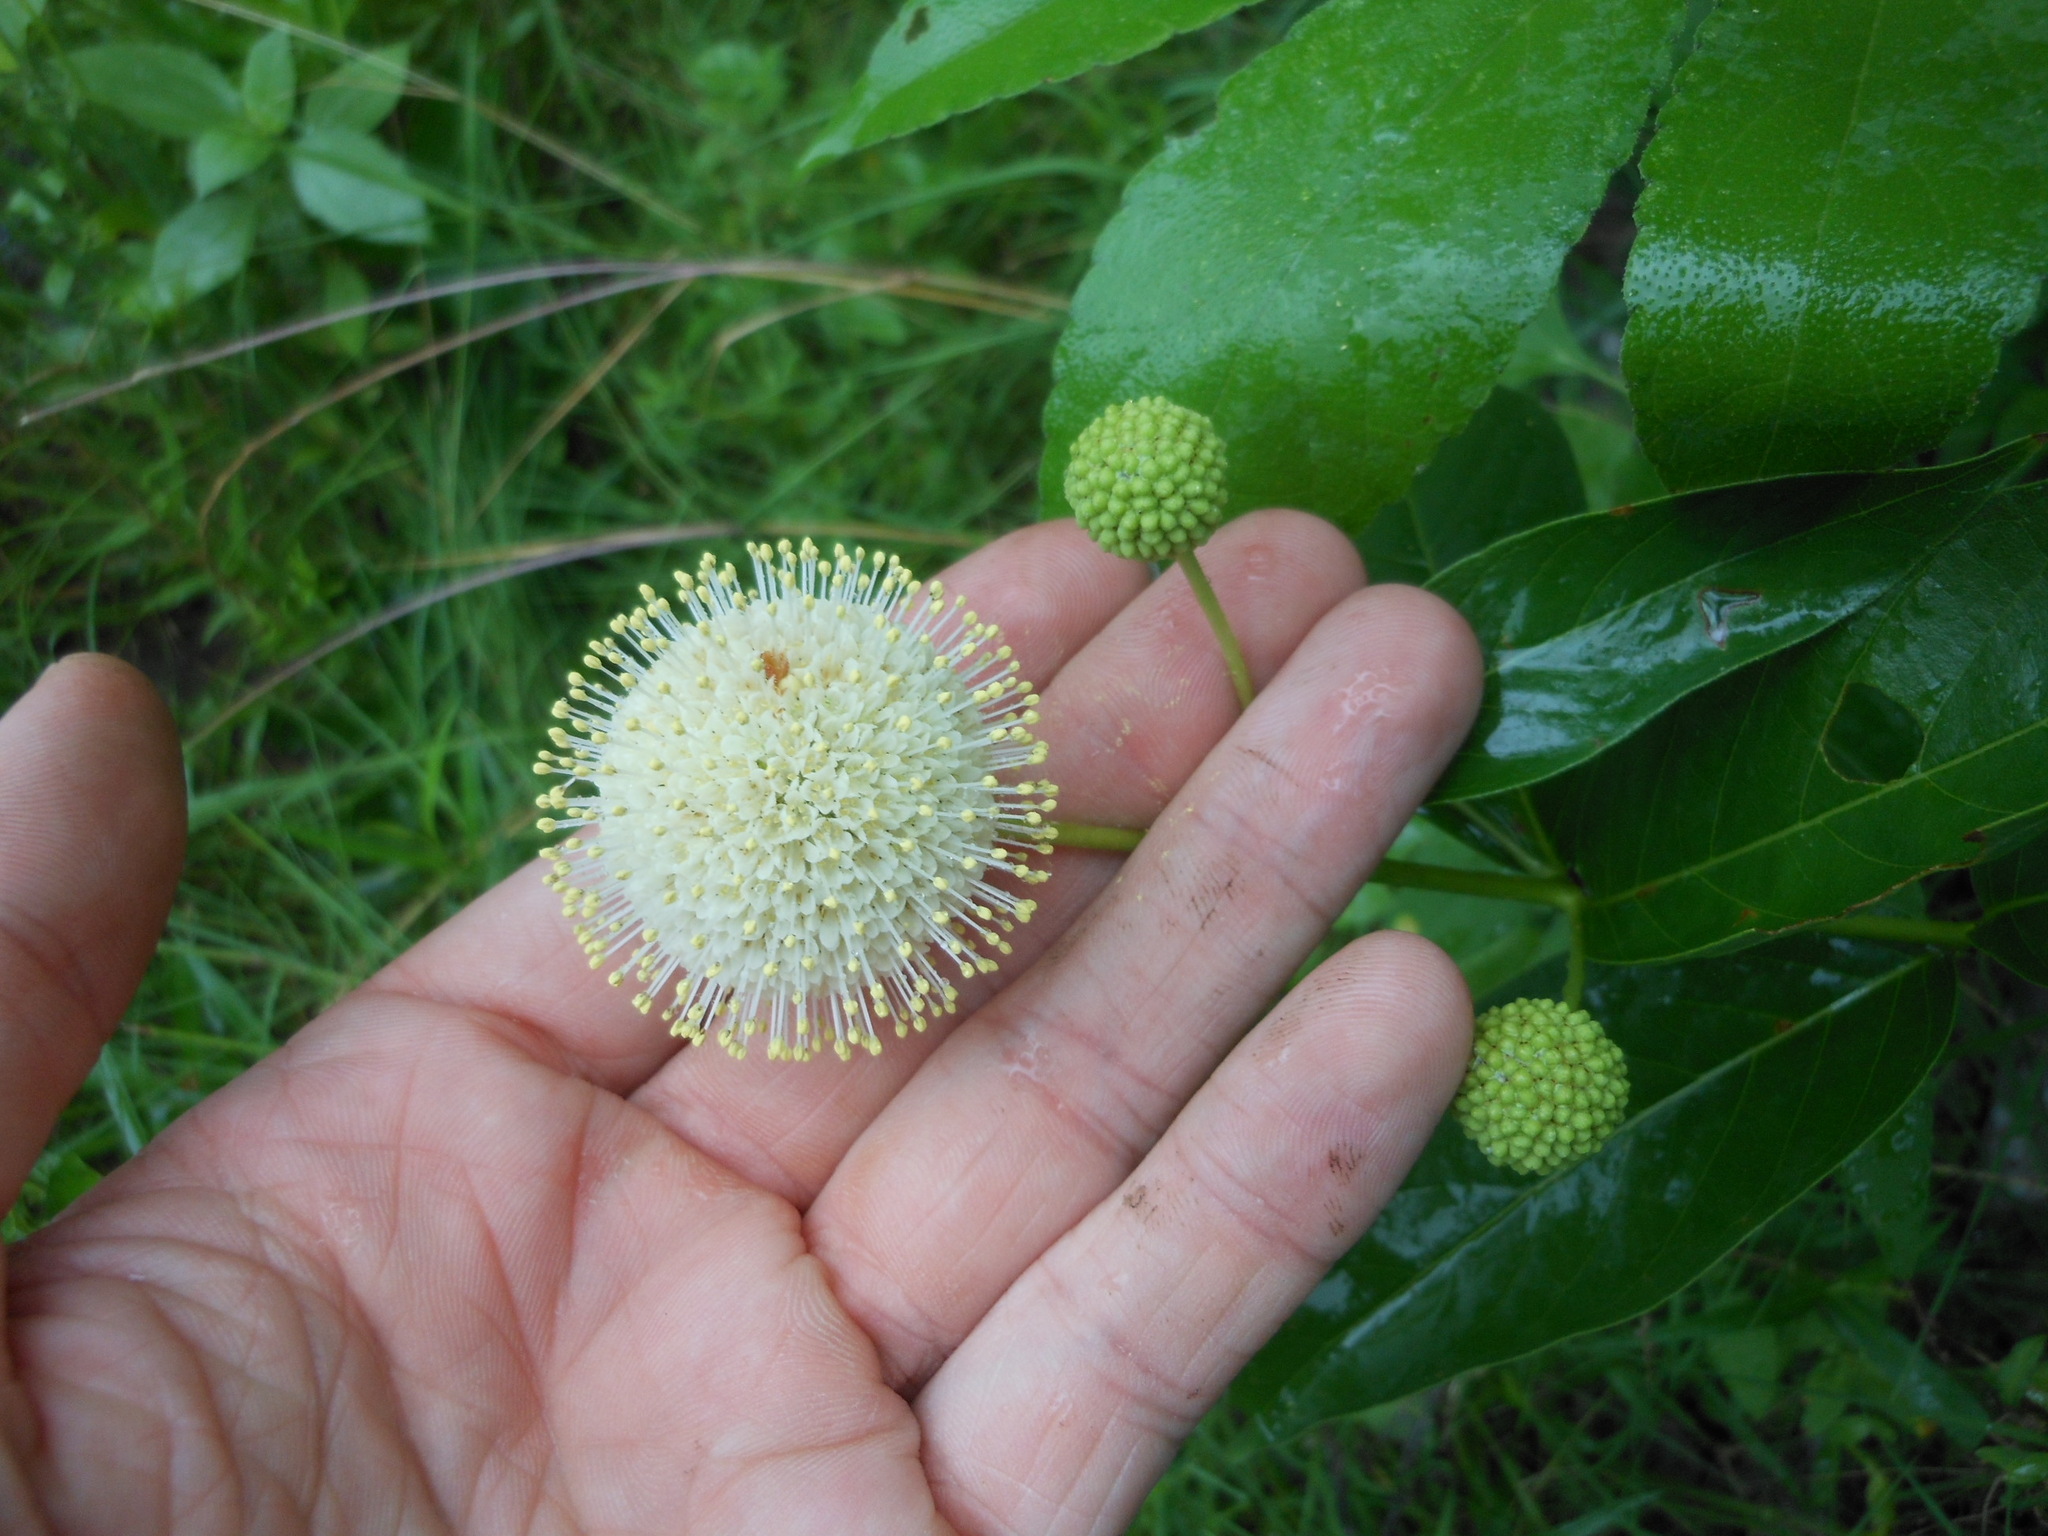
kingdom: Plantae
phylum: Tracheophyta
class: Magnoliopsida
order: Gentianales
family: Rubiaceae
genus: Cephalanthus
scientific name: Cephalanthus occidentalis
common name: Button-willow
